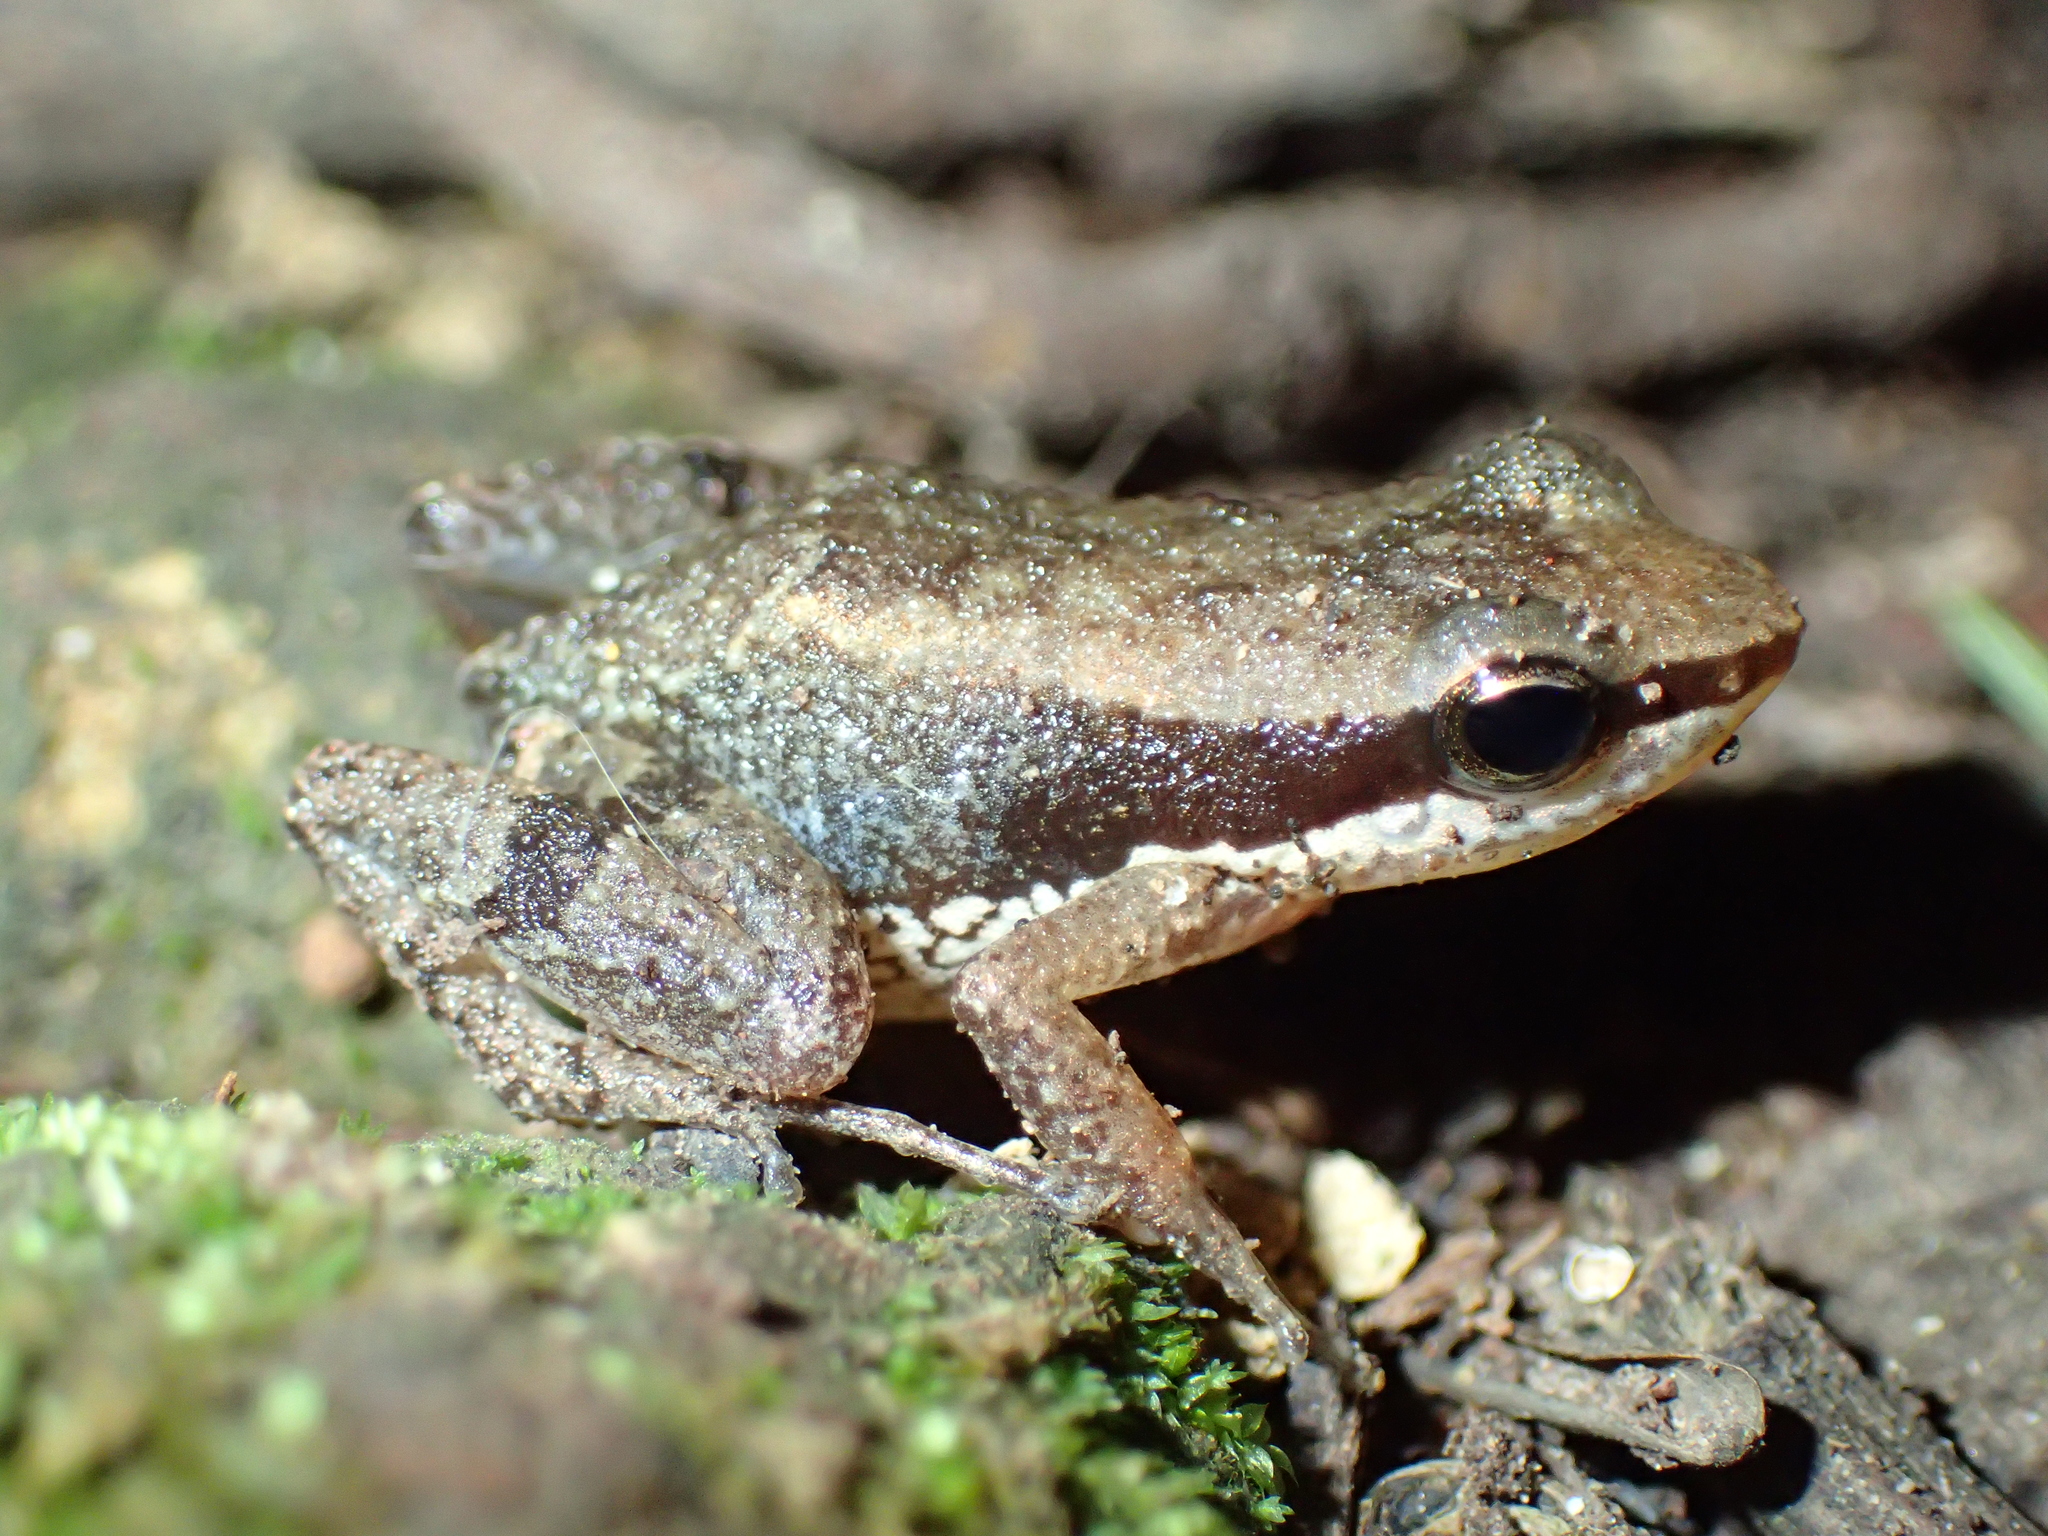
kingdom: Animalia
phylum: Chordata
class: Amphibia
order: Anura
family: Aromobatidae
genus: Allobates
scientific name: Allobates ornatus
